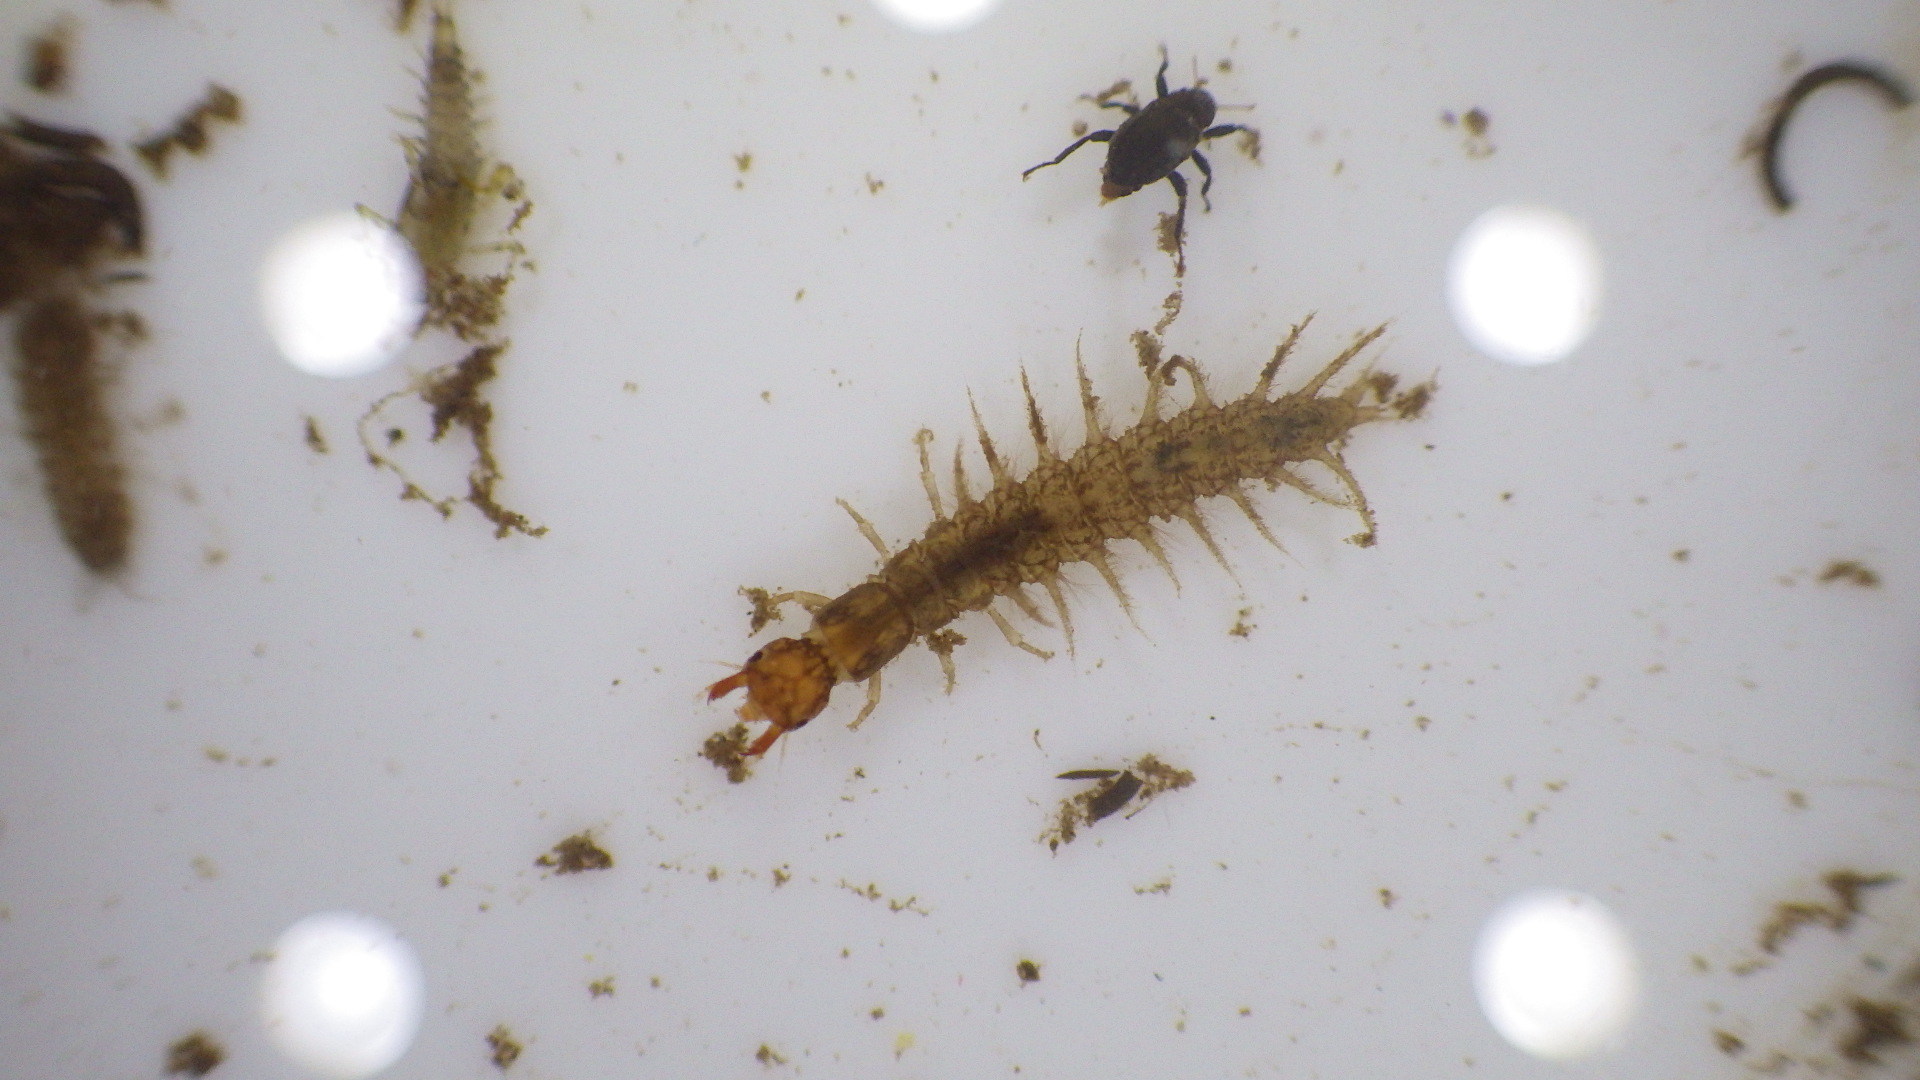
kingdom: Animalia
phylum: Arthropoda
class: Insecta
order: Megaloptera
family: Corydalidae
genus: Corydalus
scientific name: Corydalus cornutus
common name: Dobsonfly
